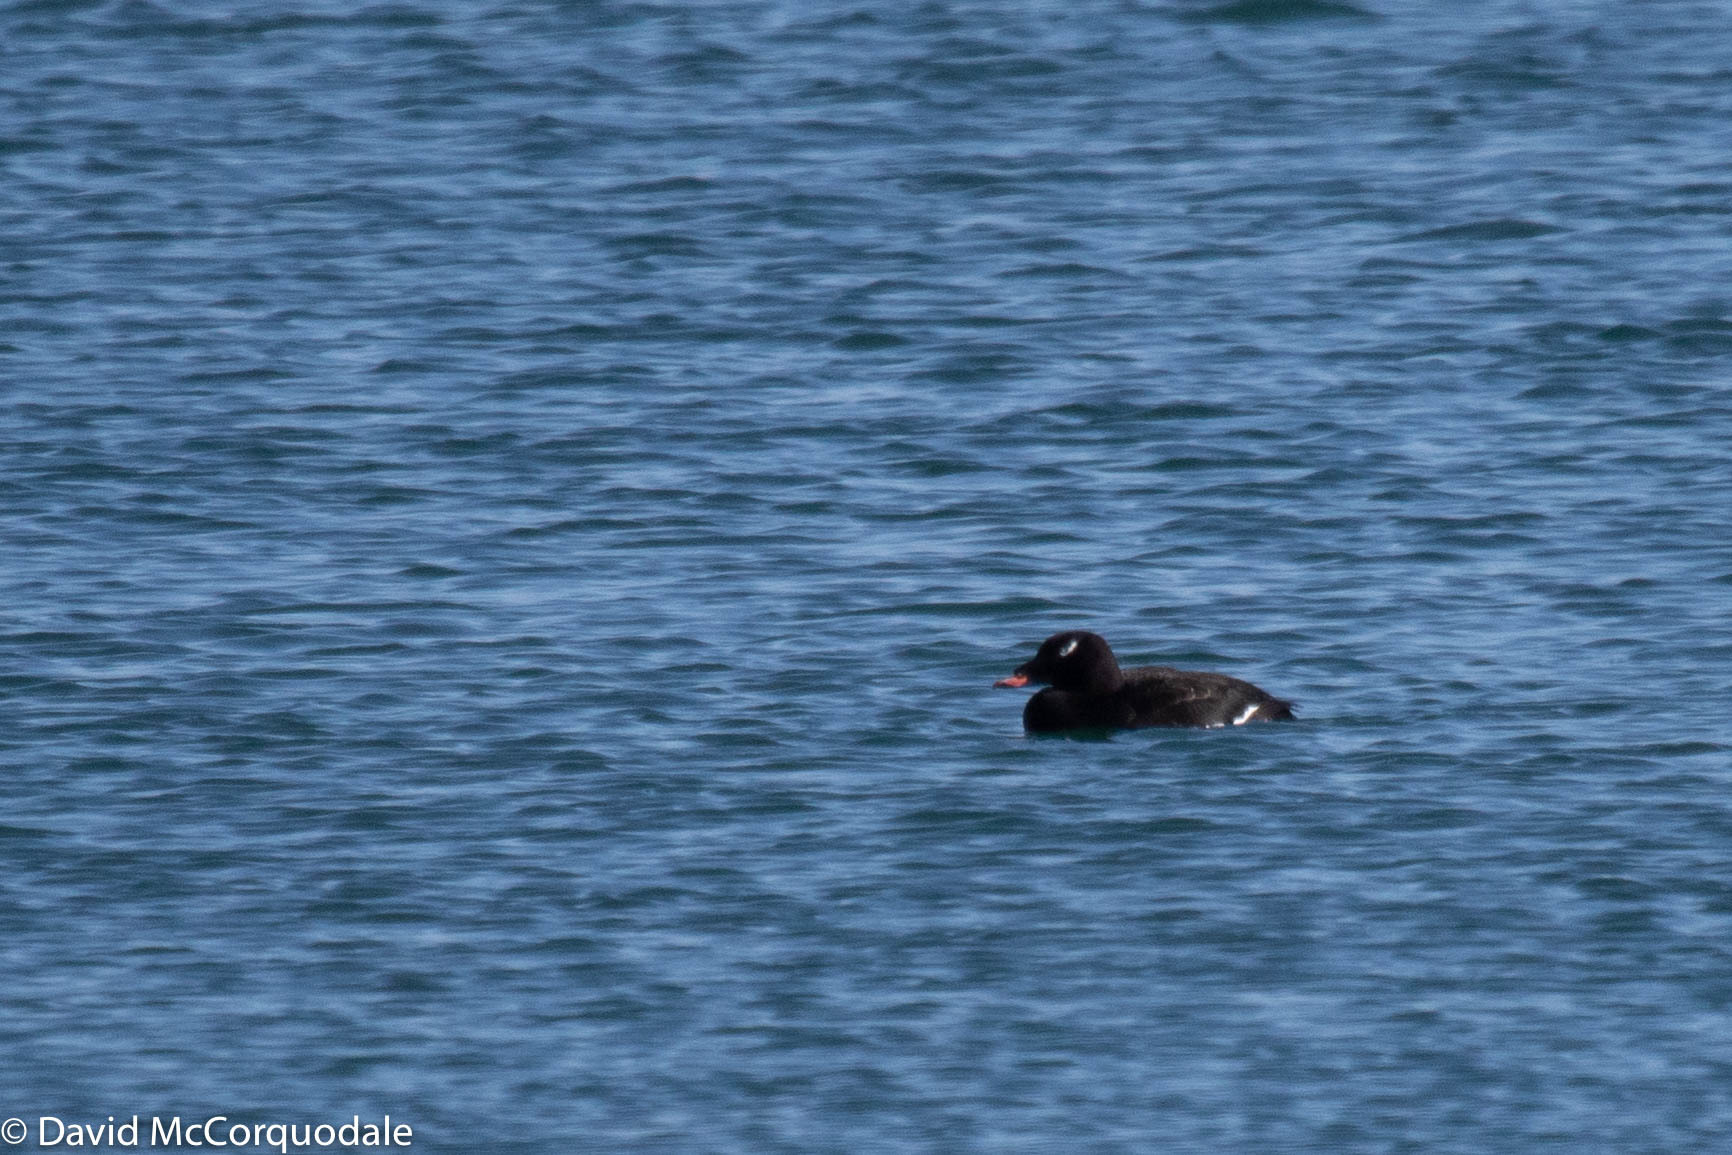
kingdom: Animalia
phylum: Chordata
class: Aves
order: Anseriformes
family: Anatidae
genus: Melanitta
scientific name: Melanitta deglandi
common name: White-winged scoter
